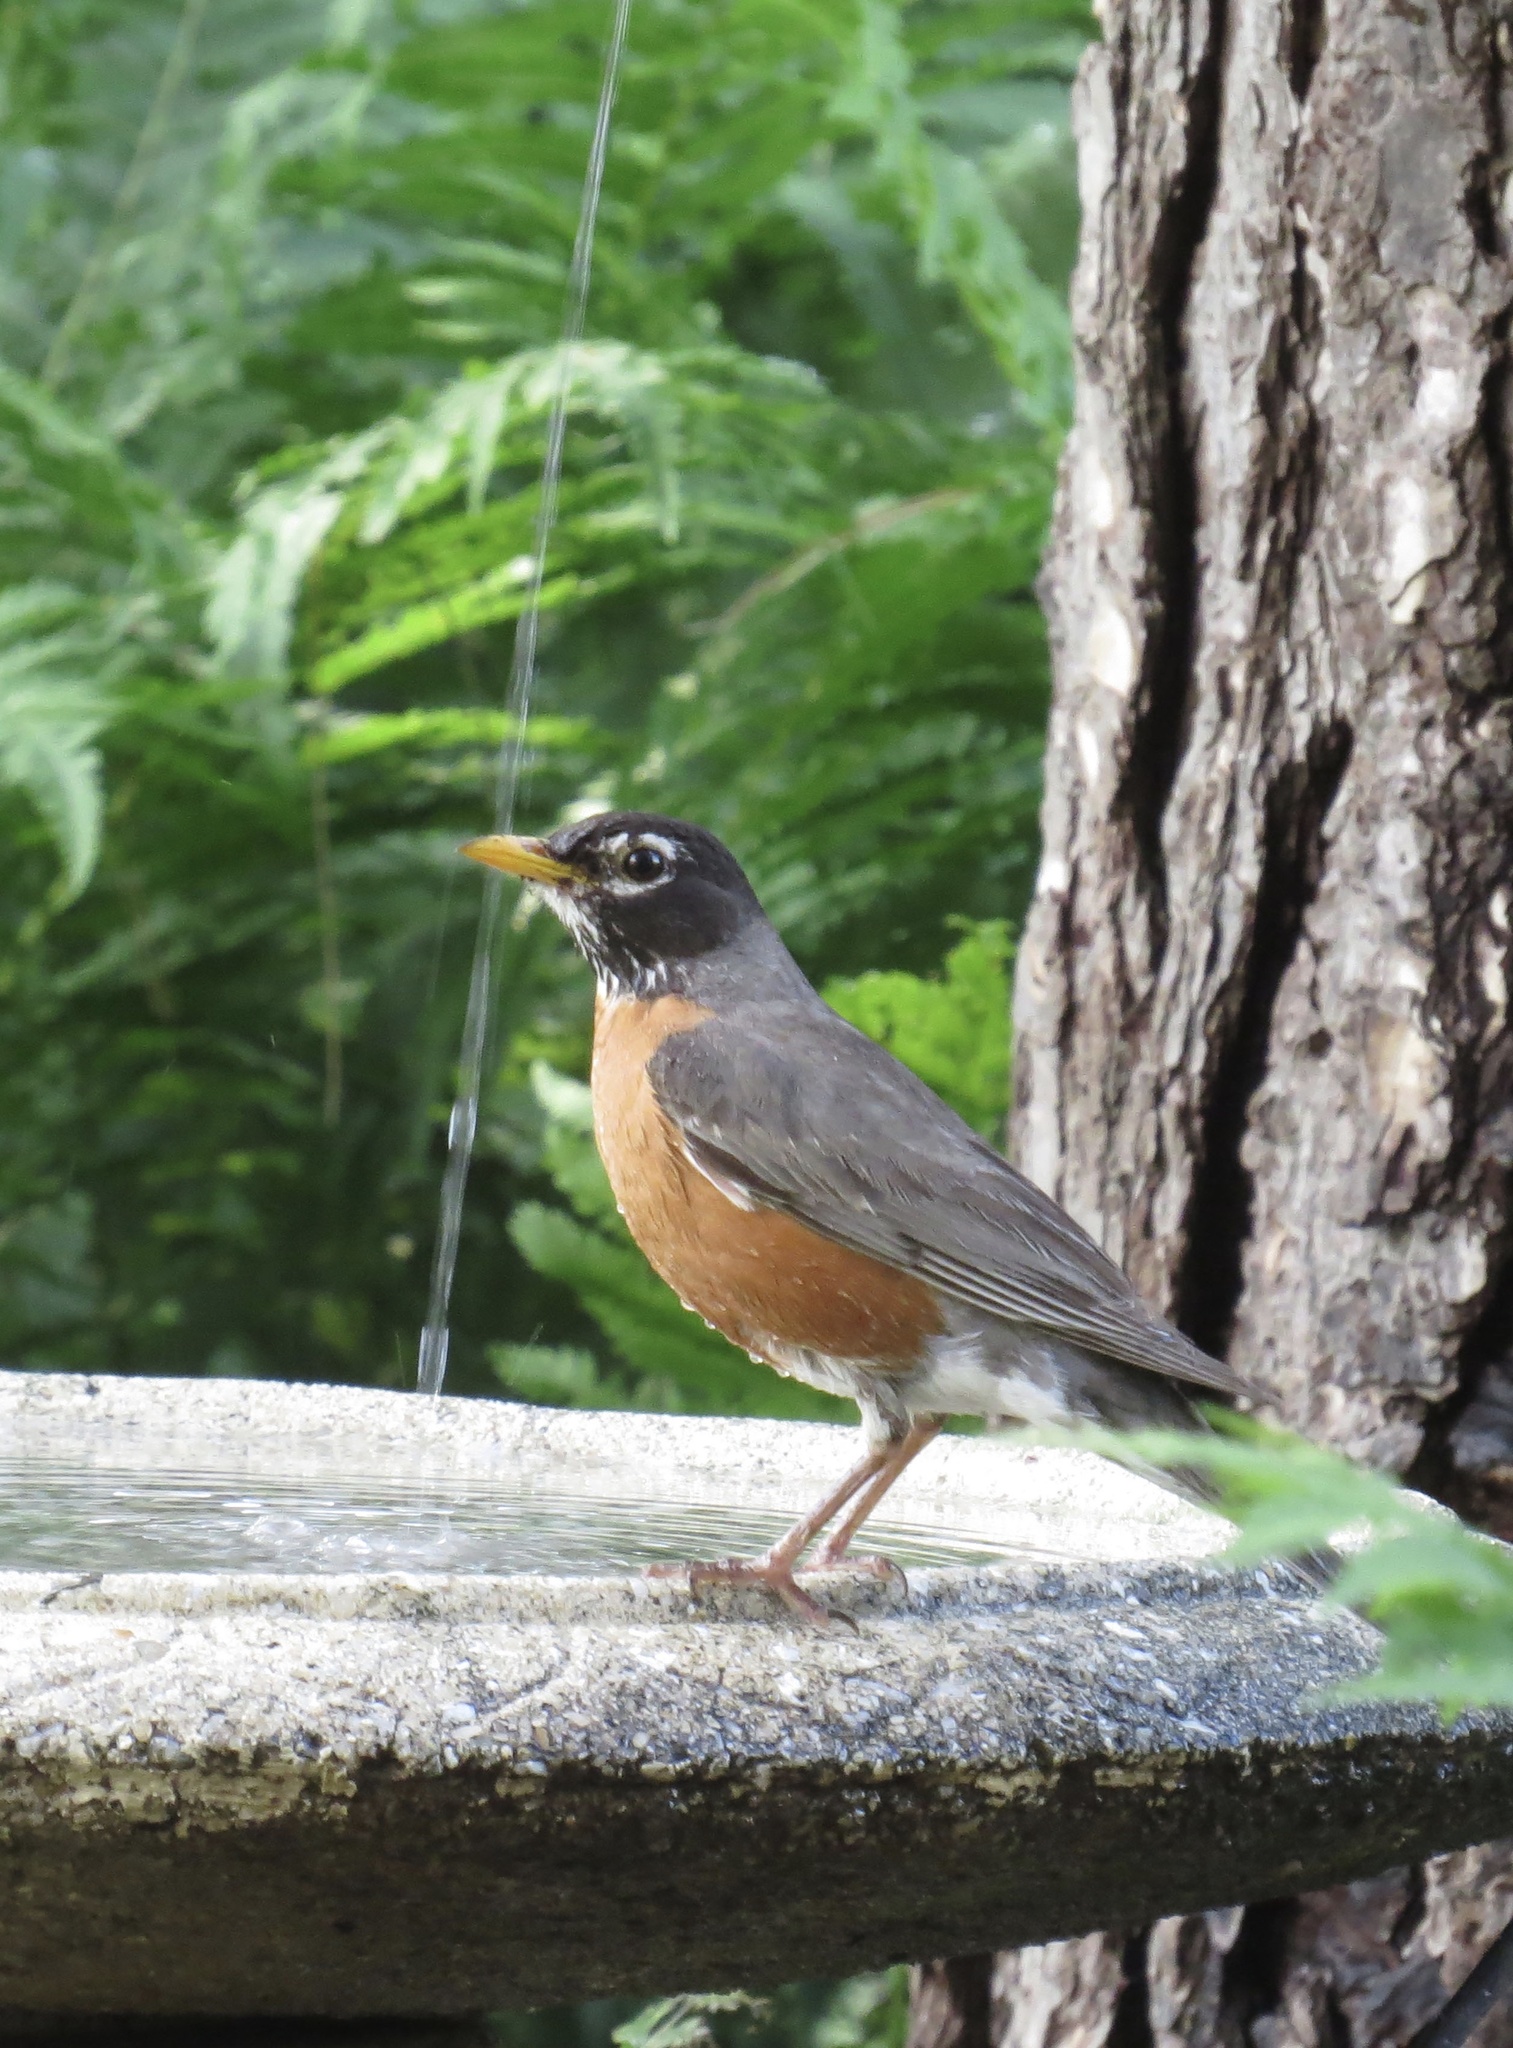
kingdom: Animalia
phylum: Chordata
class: Aves
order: Passeriformes
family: Turdidae
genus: Turdus
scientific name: Turdus migratorius
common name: American robin
